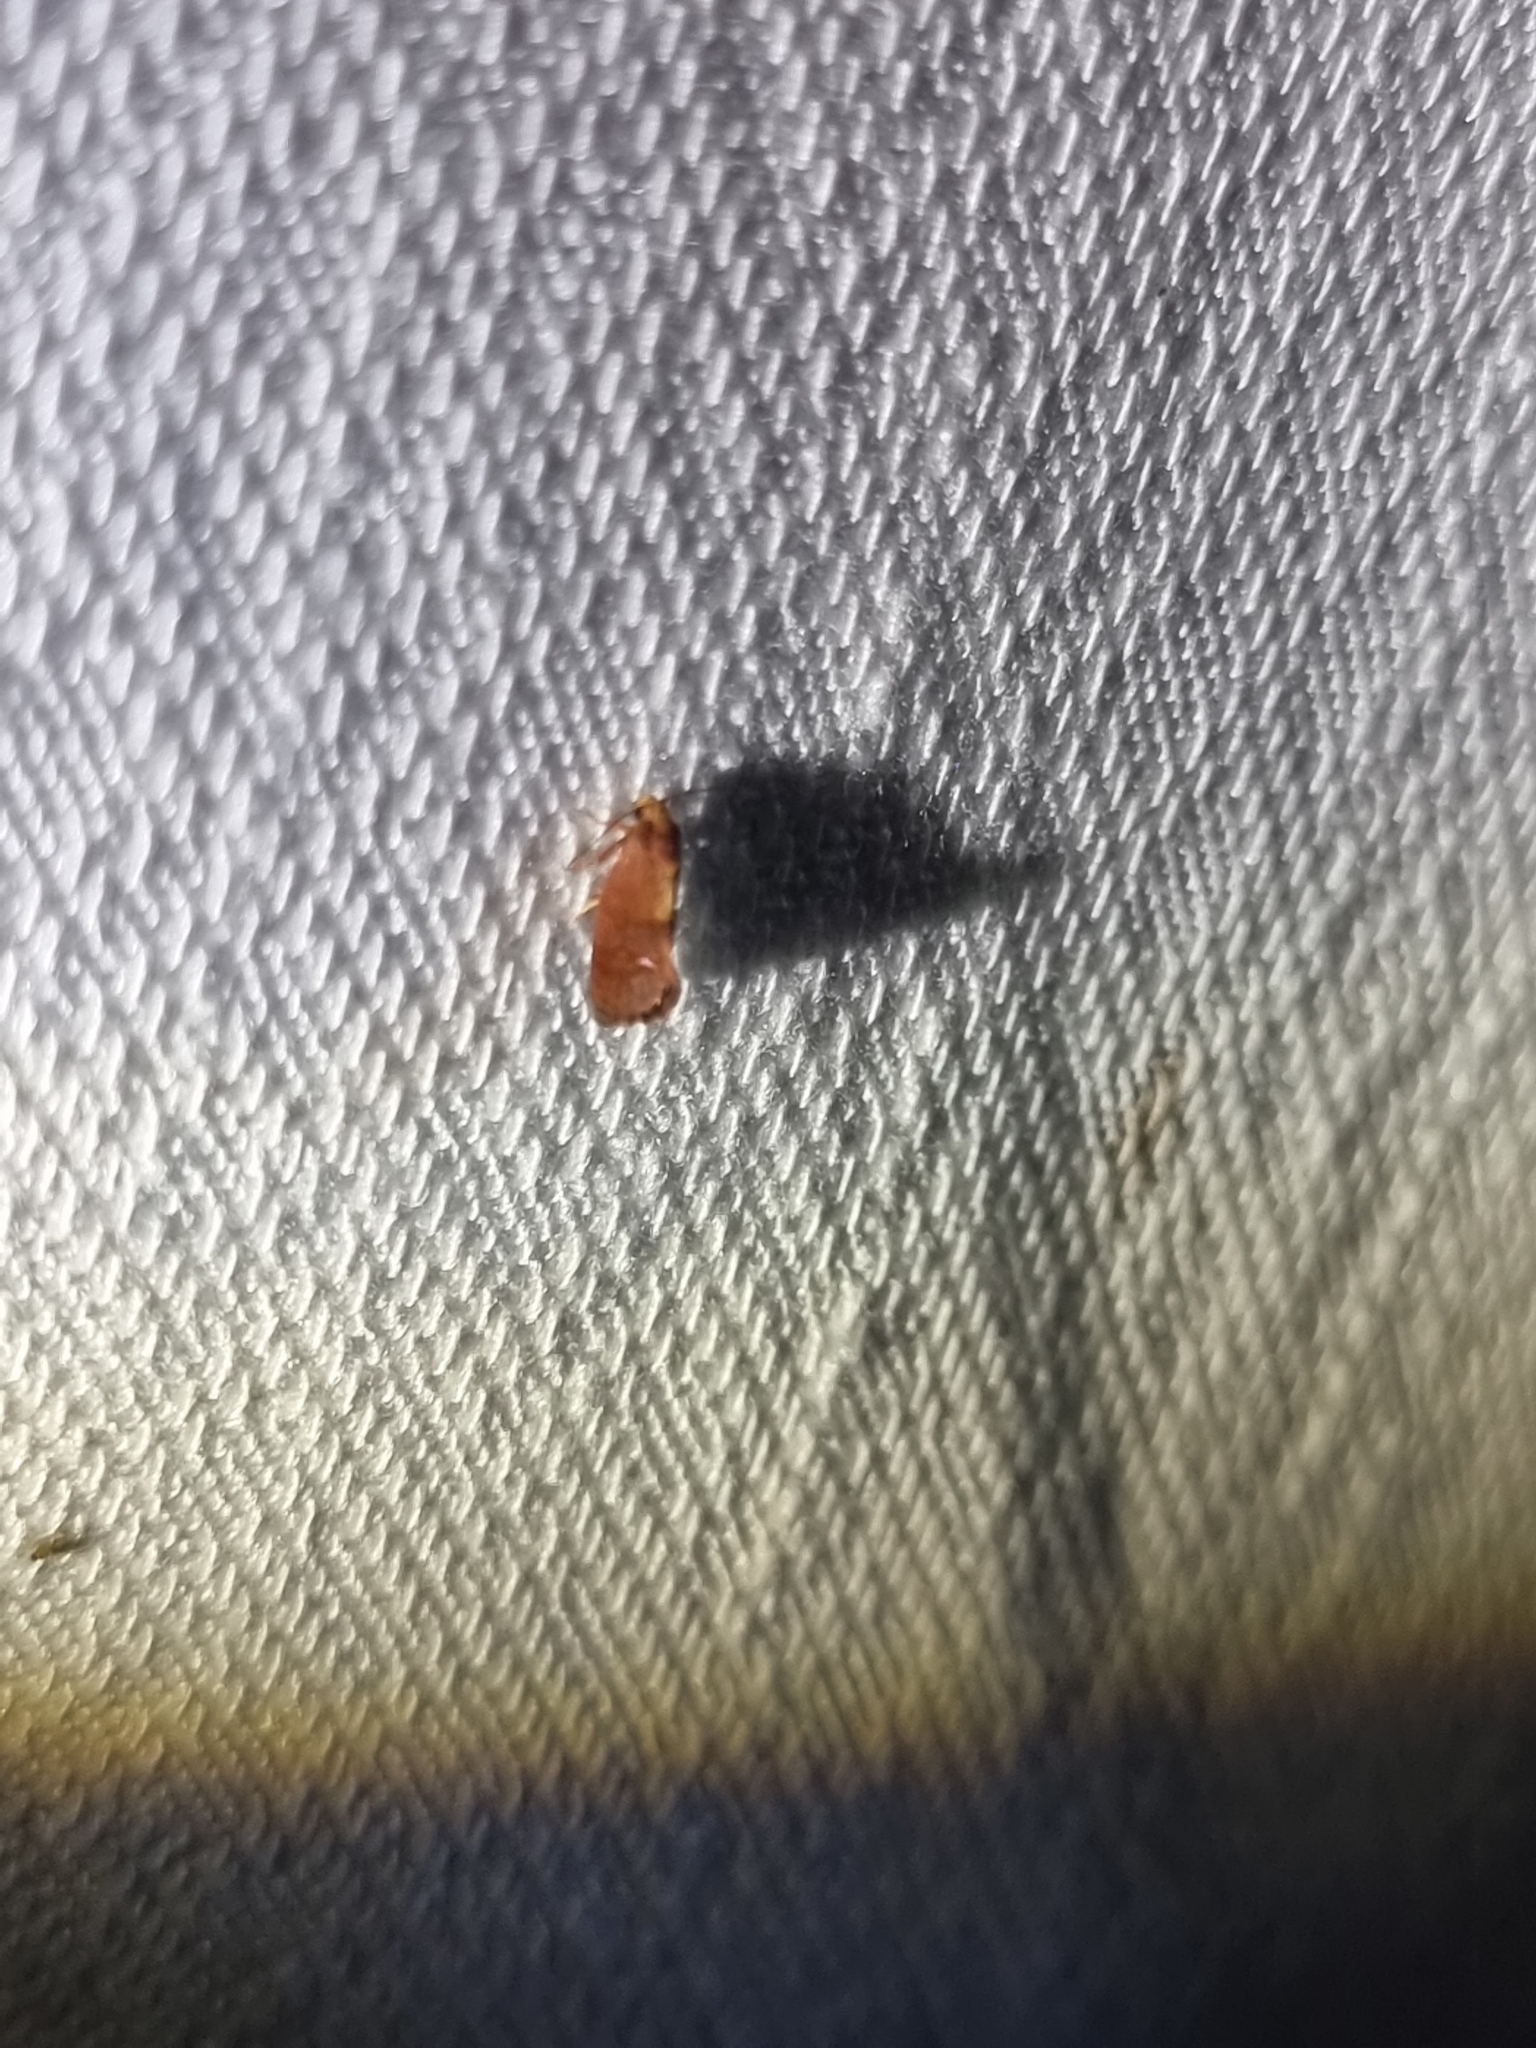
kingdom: Animalia
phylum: Arthropoda
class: Insecta
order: Lepidoptera
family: Tortricidae
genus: Cryptophlebia
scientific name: Cryptophlebia ombrodelta
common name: Litchi fruit moth
